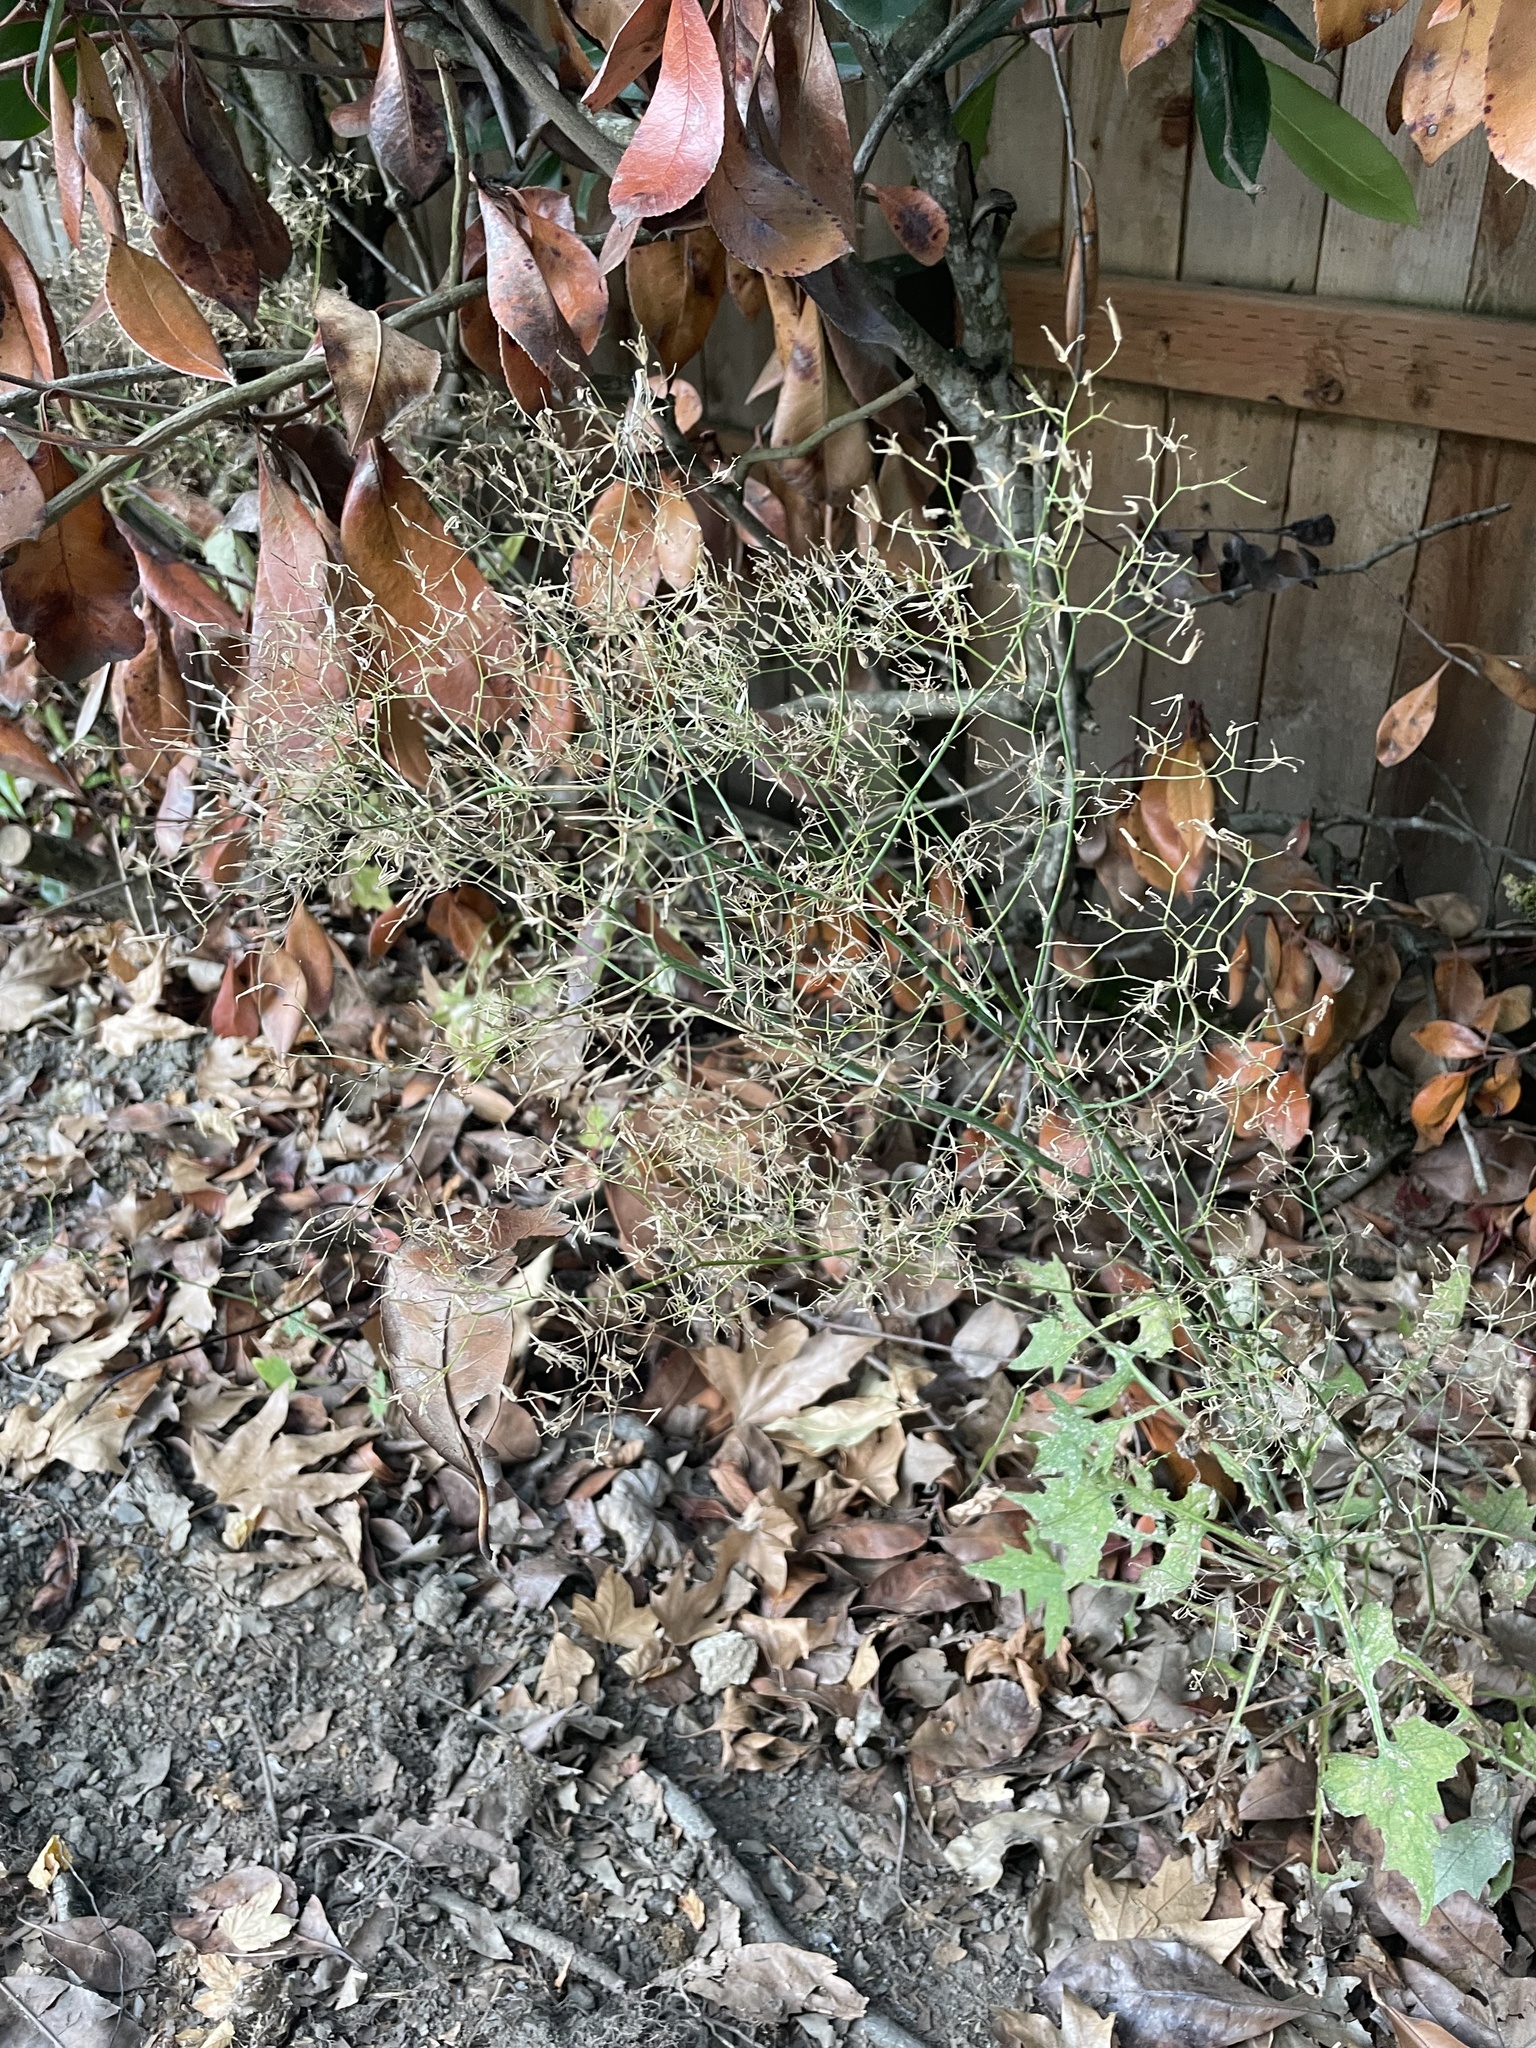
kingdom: Plantae
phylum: Tracheophyta
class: Magnoliopsida
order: Asterales
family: Asteraceae
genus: Mycelis
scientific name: Mycelis muralis
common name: Wall lettuce
